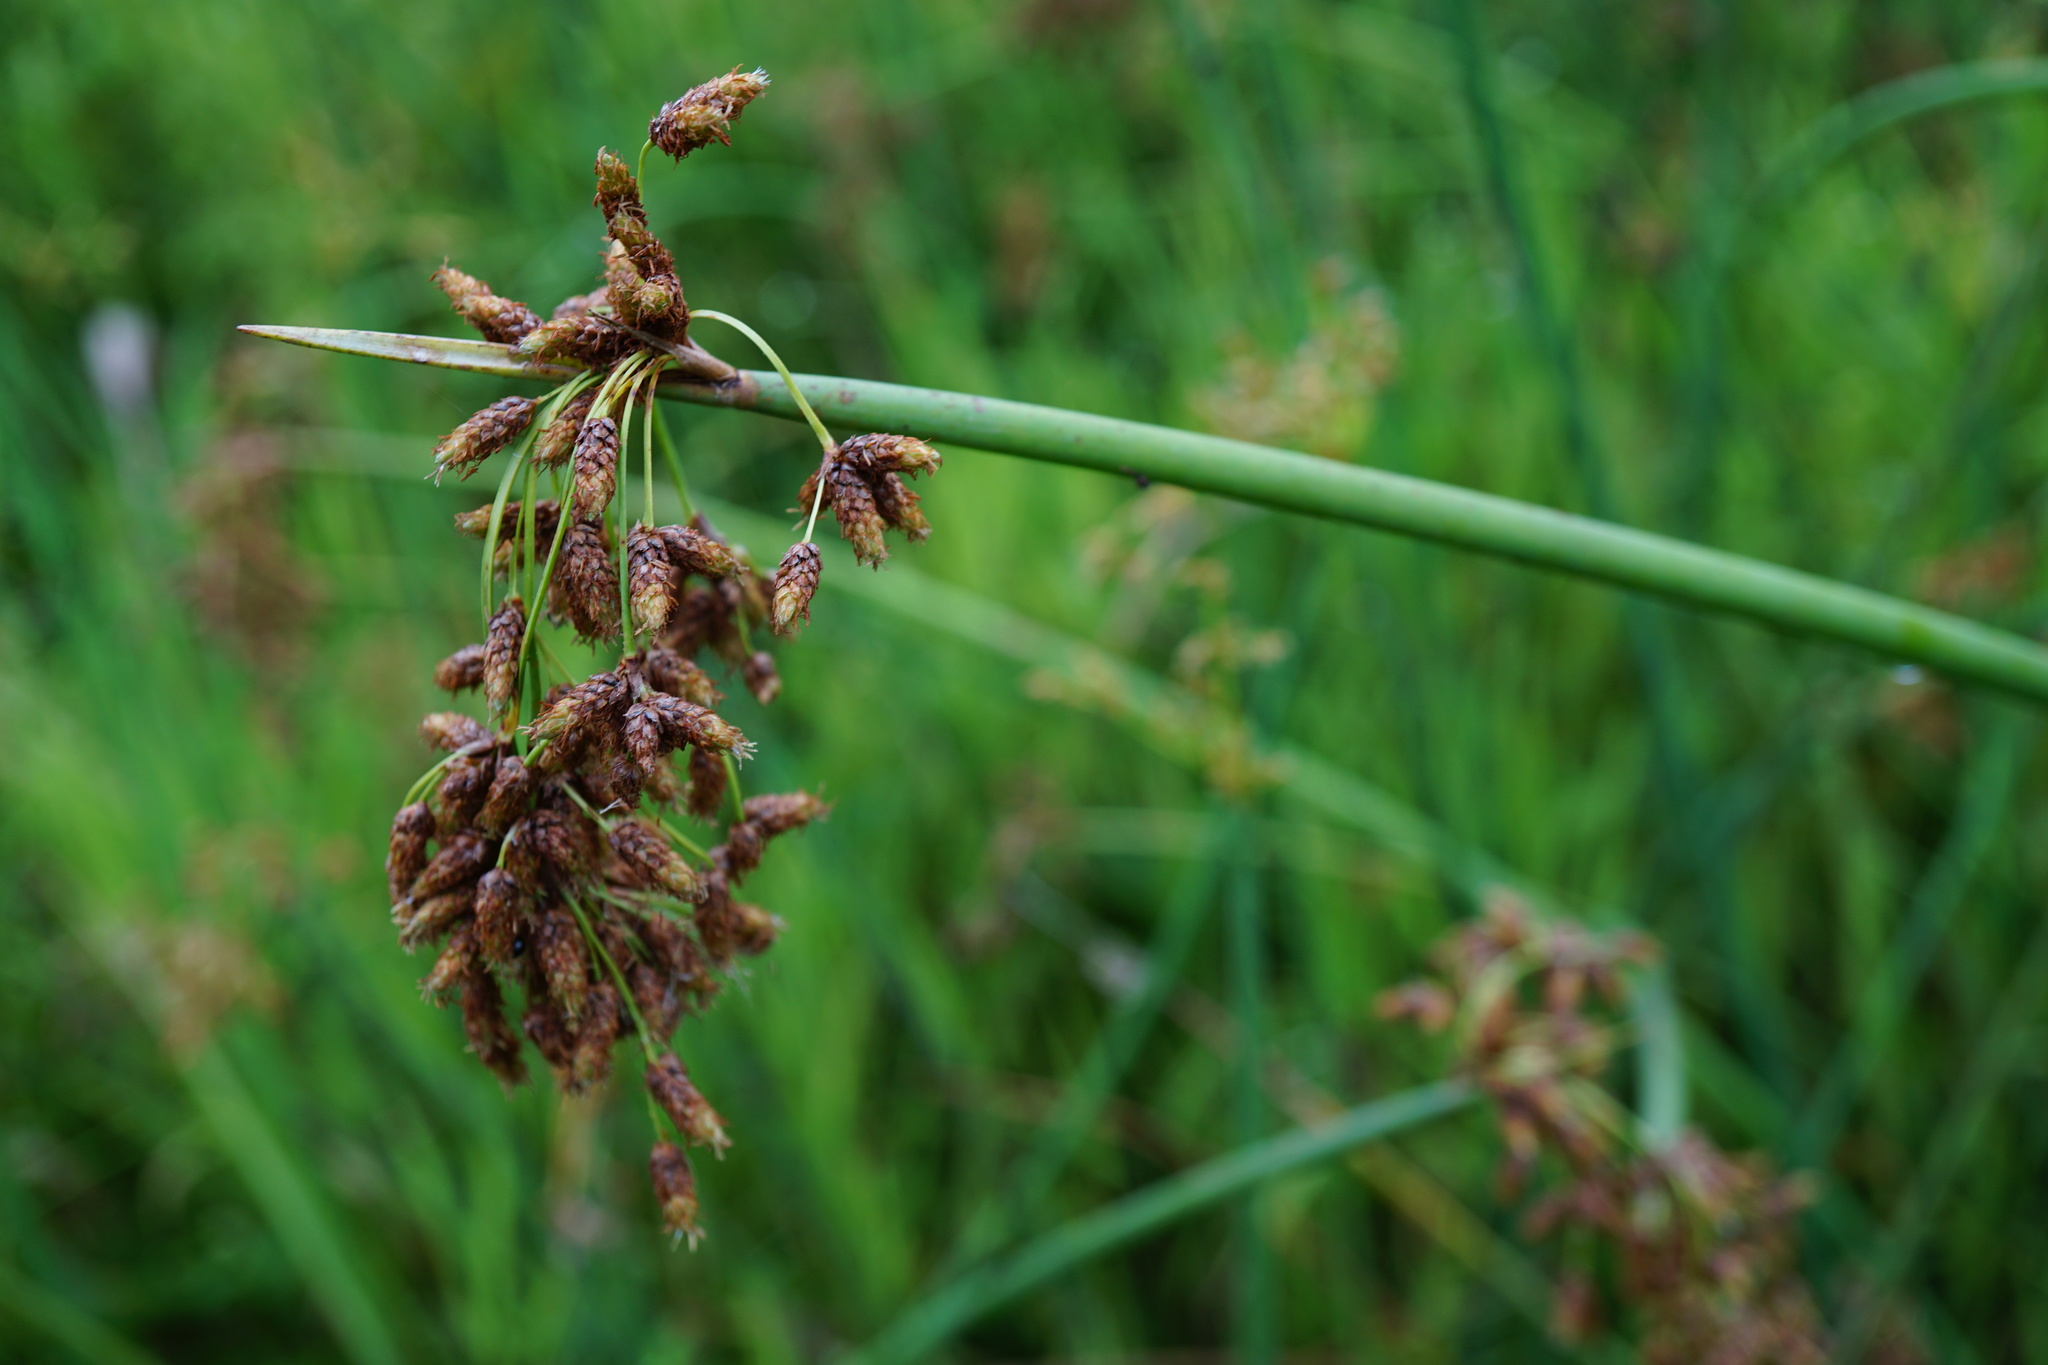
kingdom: Plantae
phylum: Tracheophyta
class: Liliopsida
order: Poales
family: Cyperaceae
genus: Schoenoplectus
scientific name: Schoenoplectus tabernaemontani
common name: Grey club-rush
